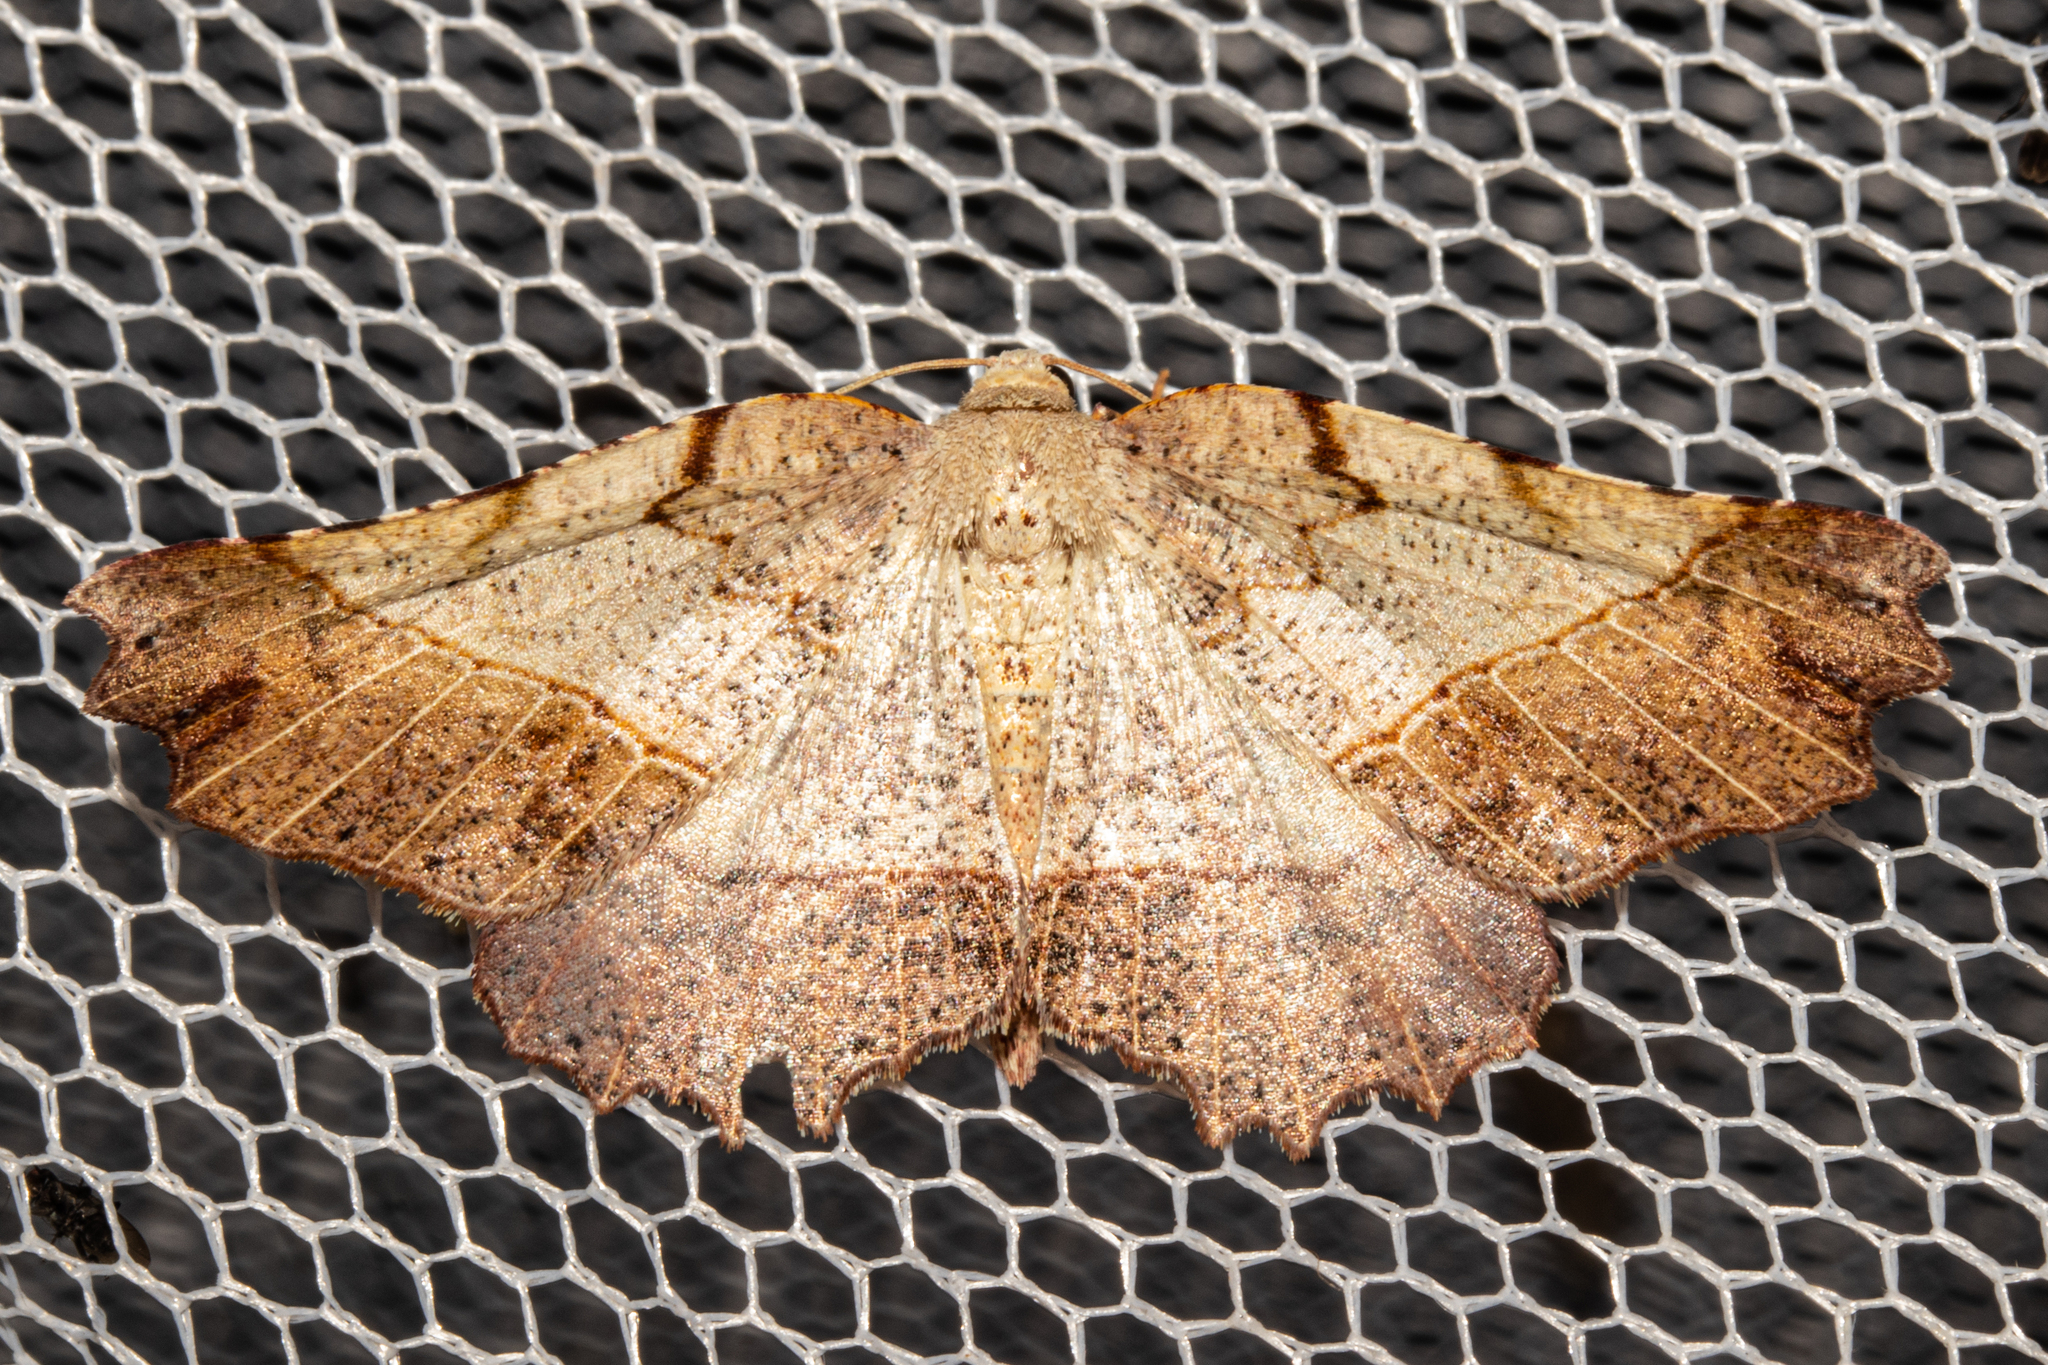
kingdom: Animalia
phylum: Arthropoda
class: Insecta
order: Lepidoptera
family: Geometridae
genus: Ischalis
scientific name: Ischalis gallaria
